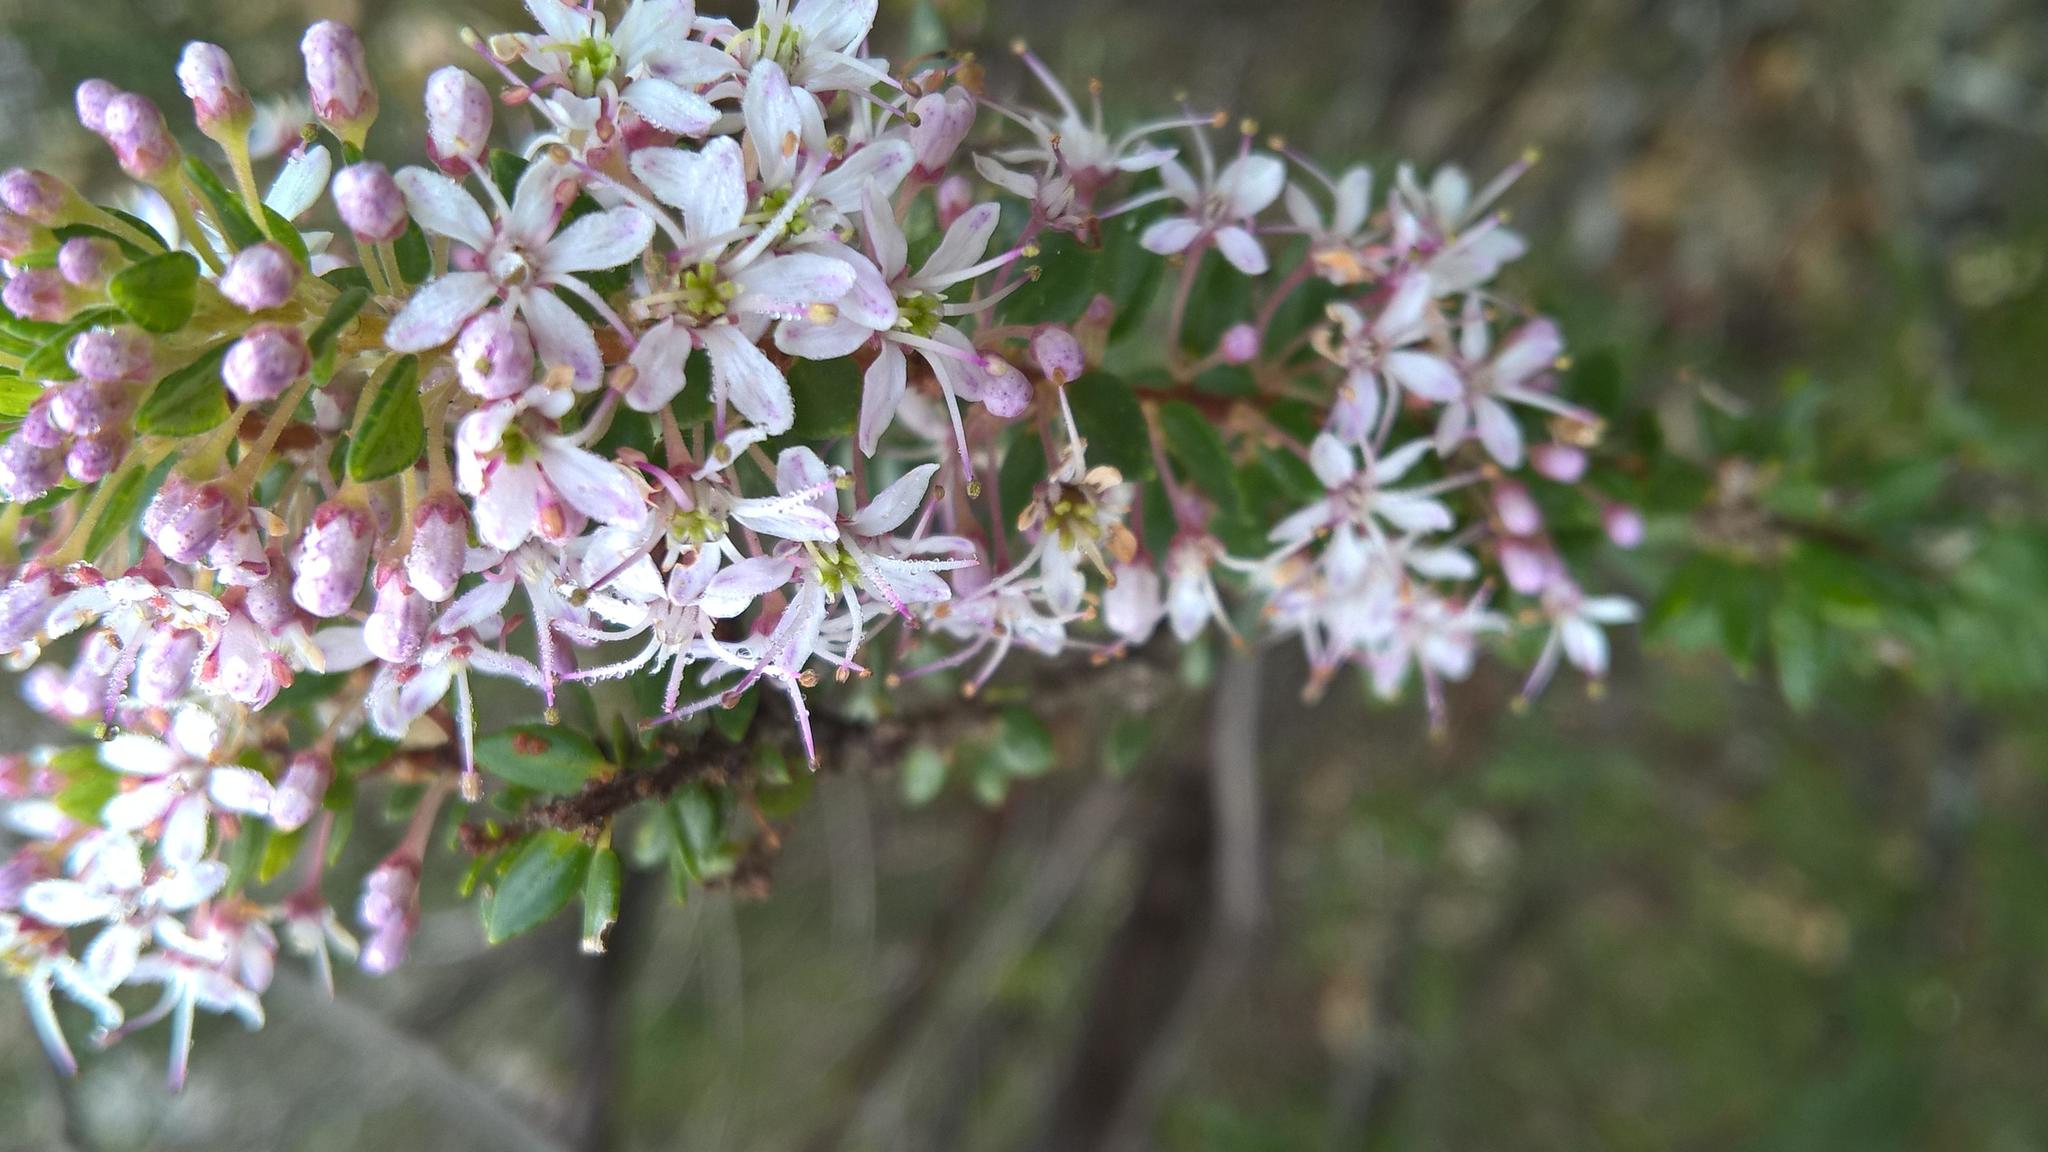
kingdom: Plantae
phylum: Tracheophyta
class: Magnoliopsida
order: Sapindales
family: Rutaceae
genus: Agathosma
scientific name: Agathosma ovata
